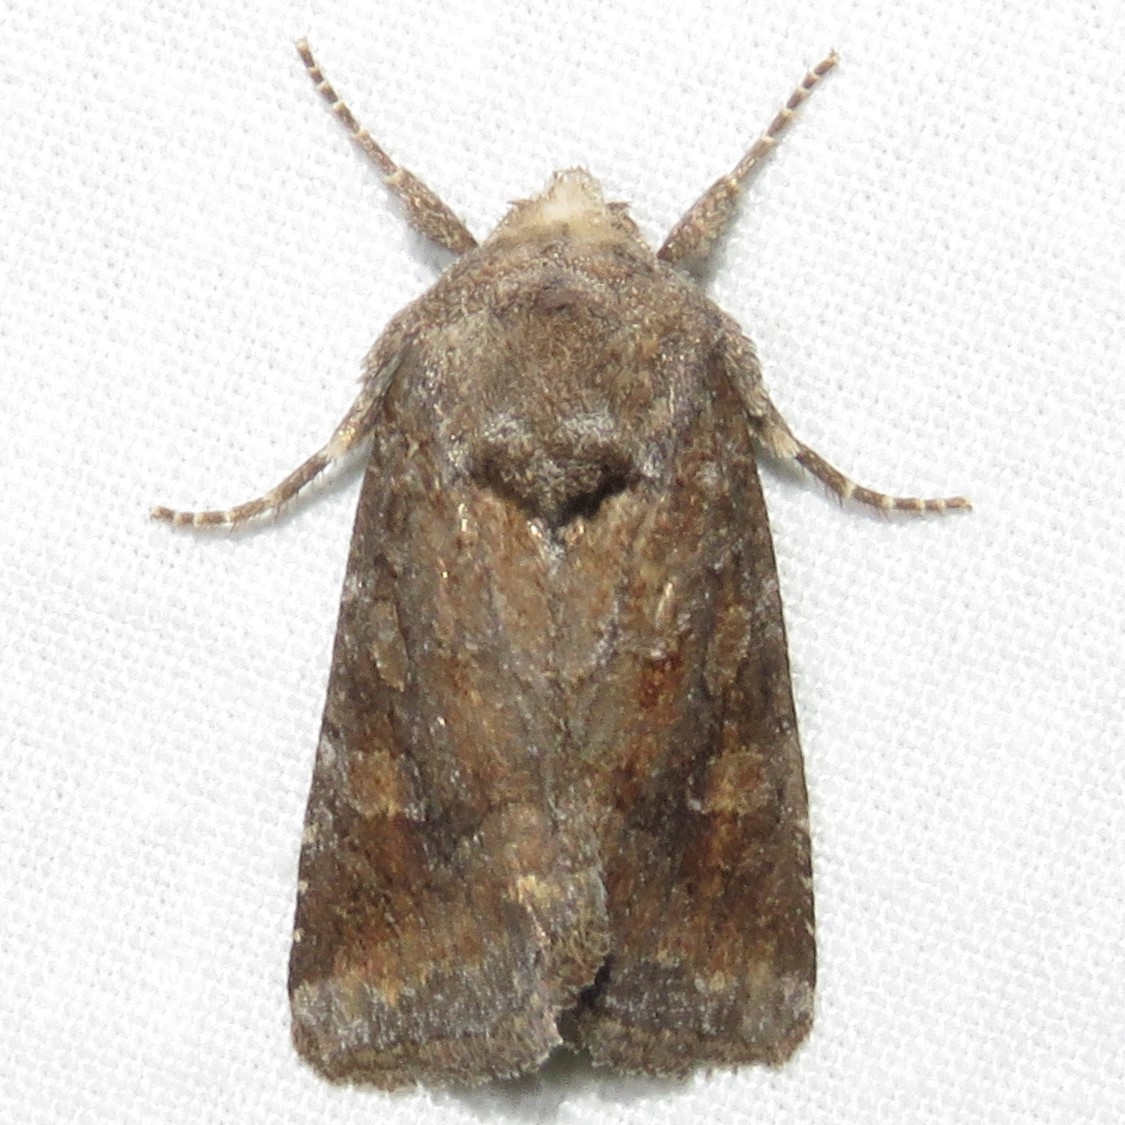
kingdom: Animalia
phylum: Arthropoda
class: Insecta
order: Lepidoptera
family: Noctuidae
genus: Lacinipolia
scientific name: Lacinipolia meditata
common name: Thinker moth
